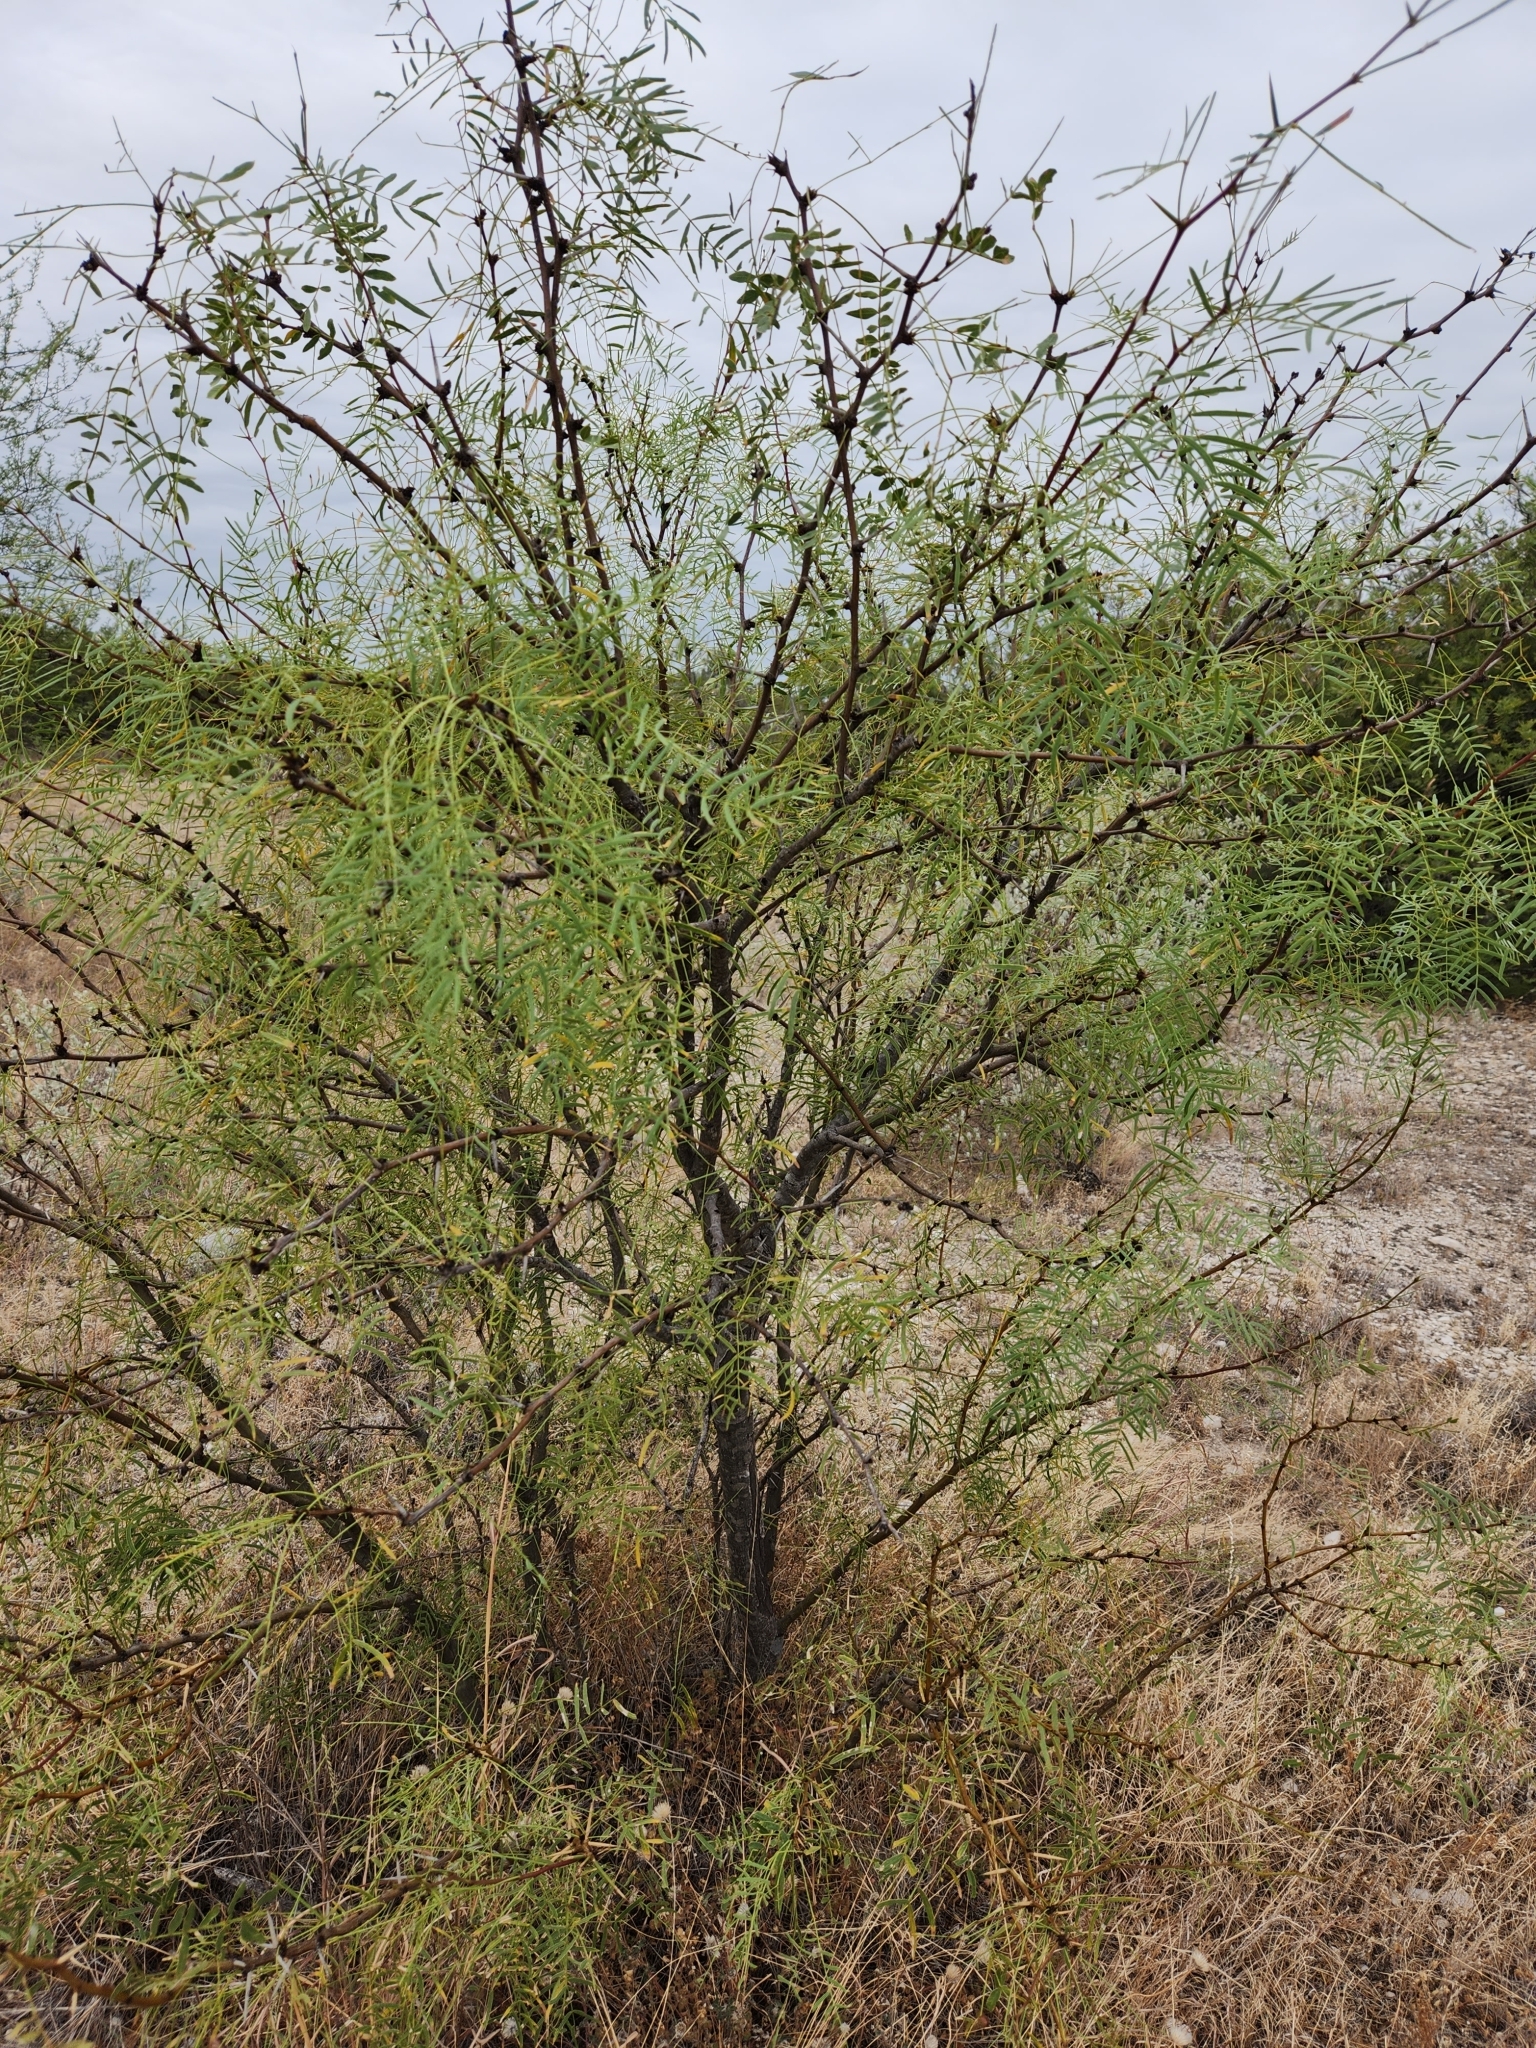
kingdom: Plantae
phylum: Tracheophyta
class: Magnoliopsida
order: Fabales
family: Fabaceae
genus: Prosopis
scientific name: Prosopis glandulosa
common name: Honey mesquite
